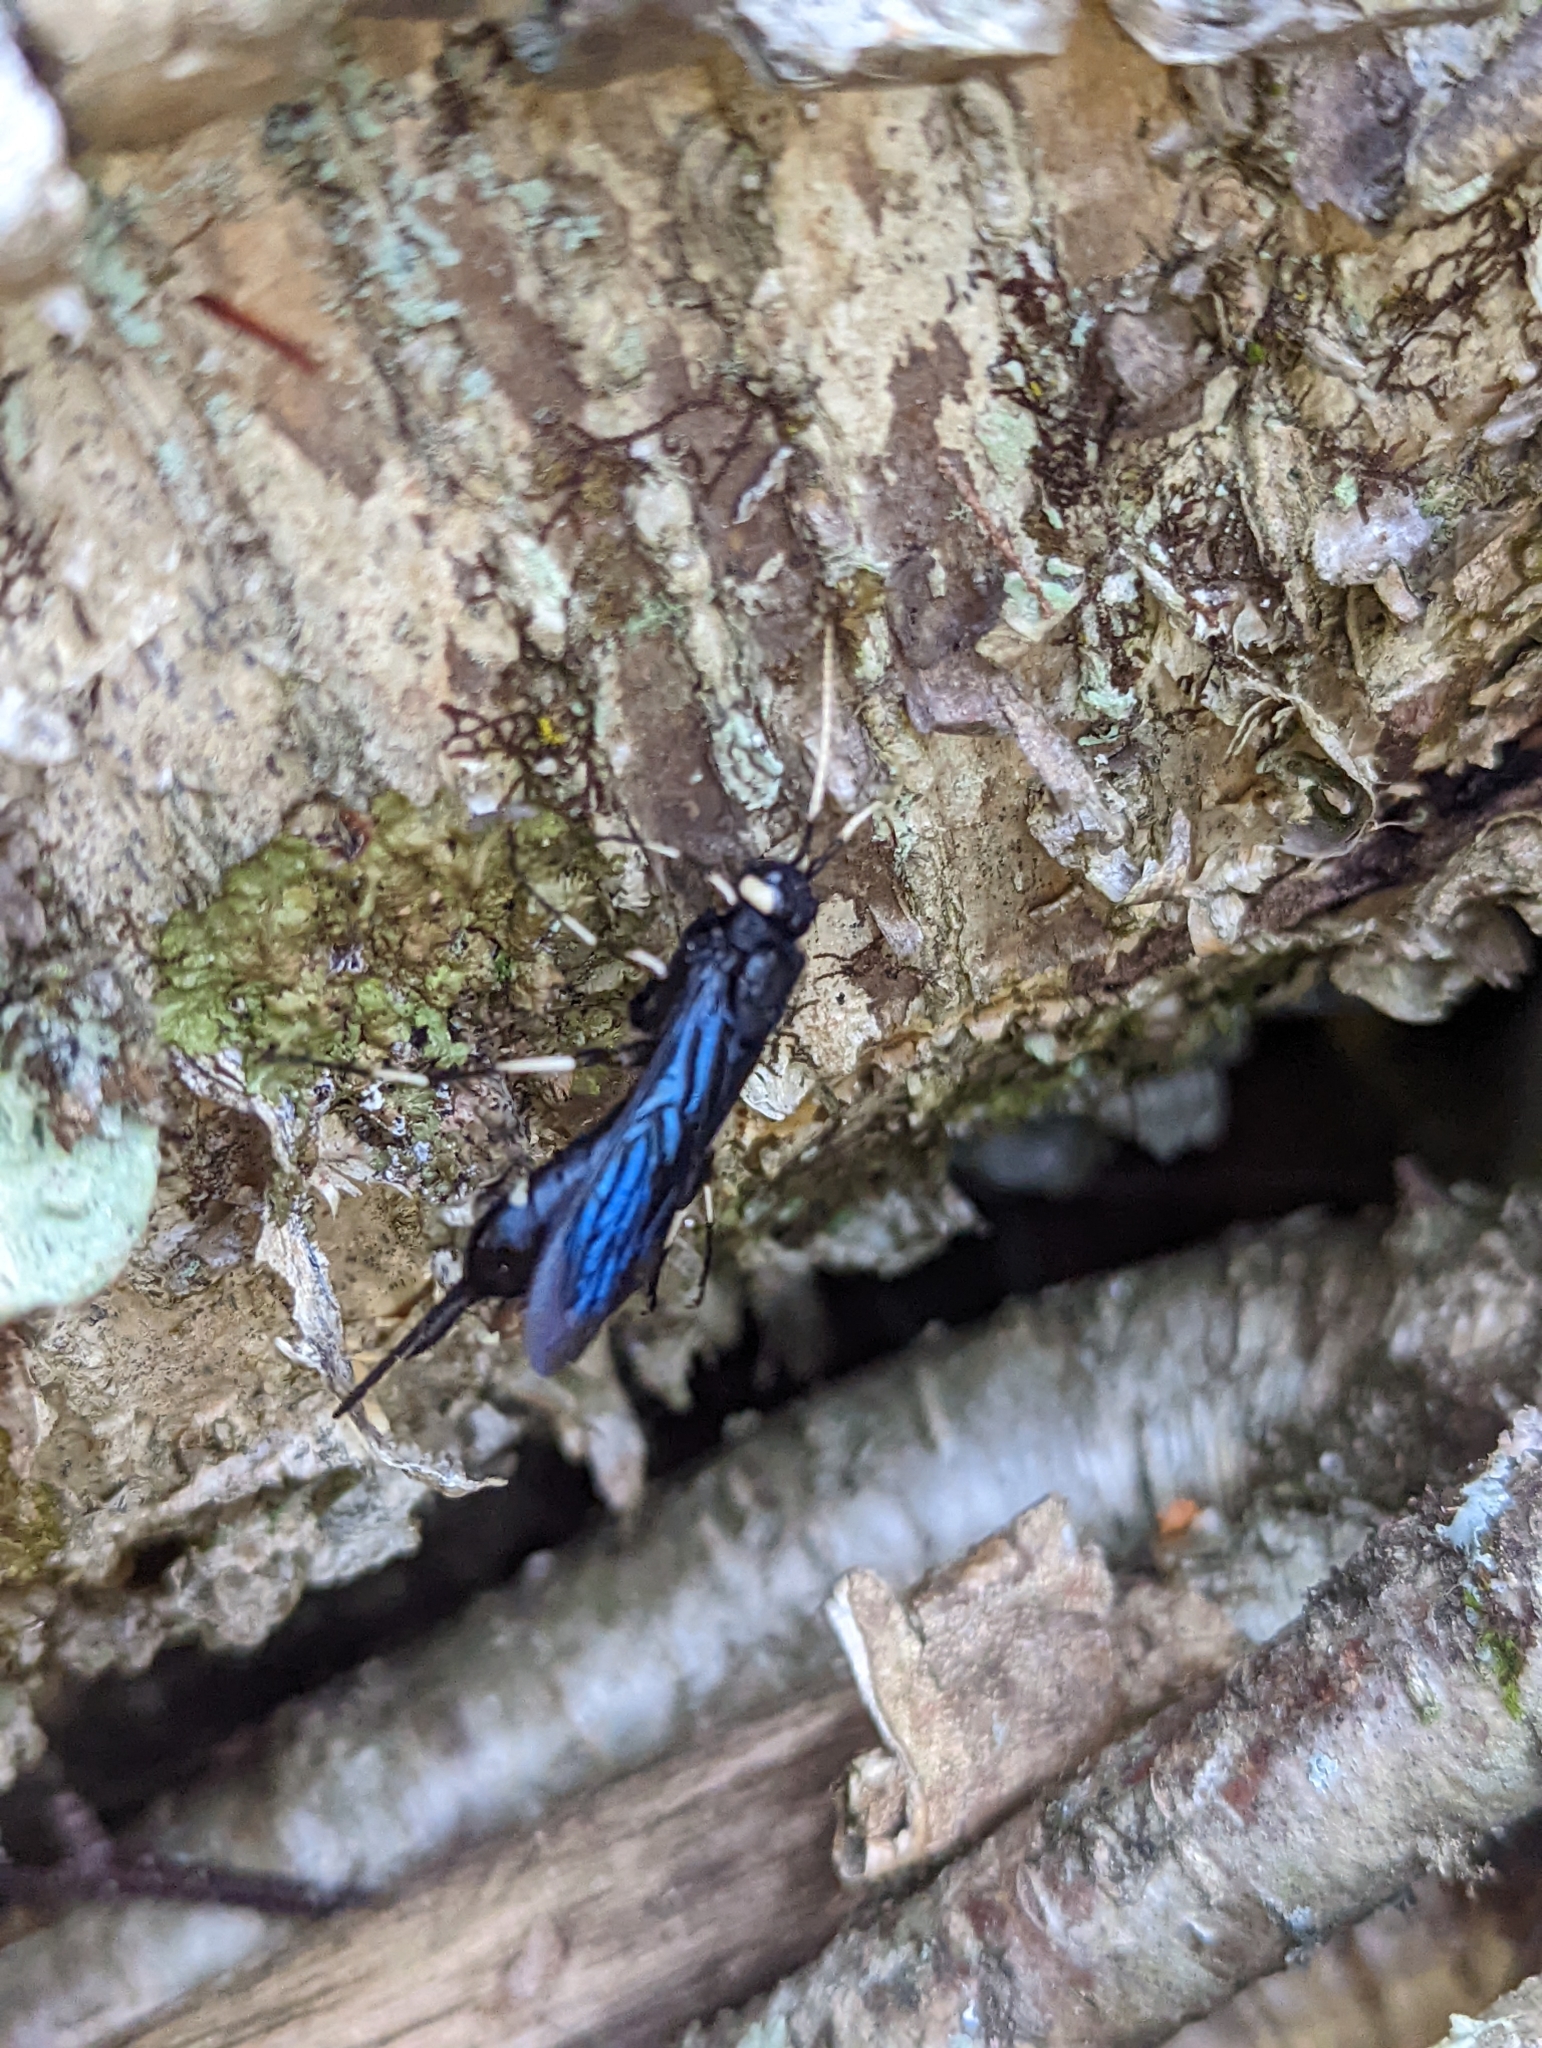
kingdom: Animalia
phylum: Arthropoda
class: Insecta
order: Hymenoptera
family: Siricidae
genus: Urocerus
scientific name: Urocerus albicornis
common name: White-horned horntail
